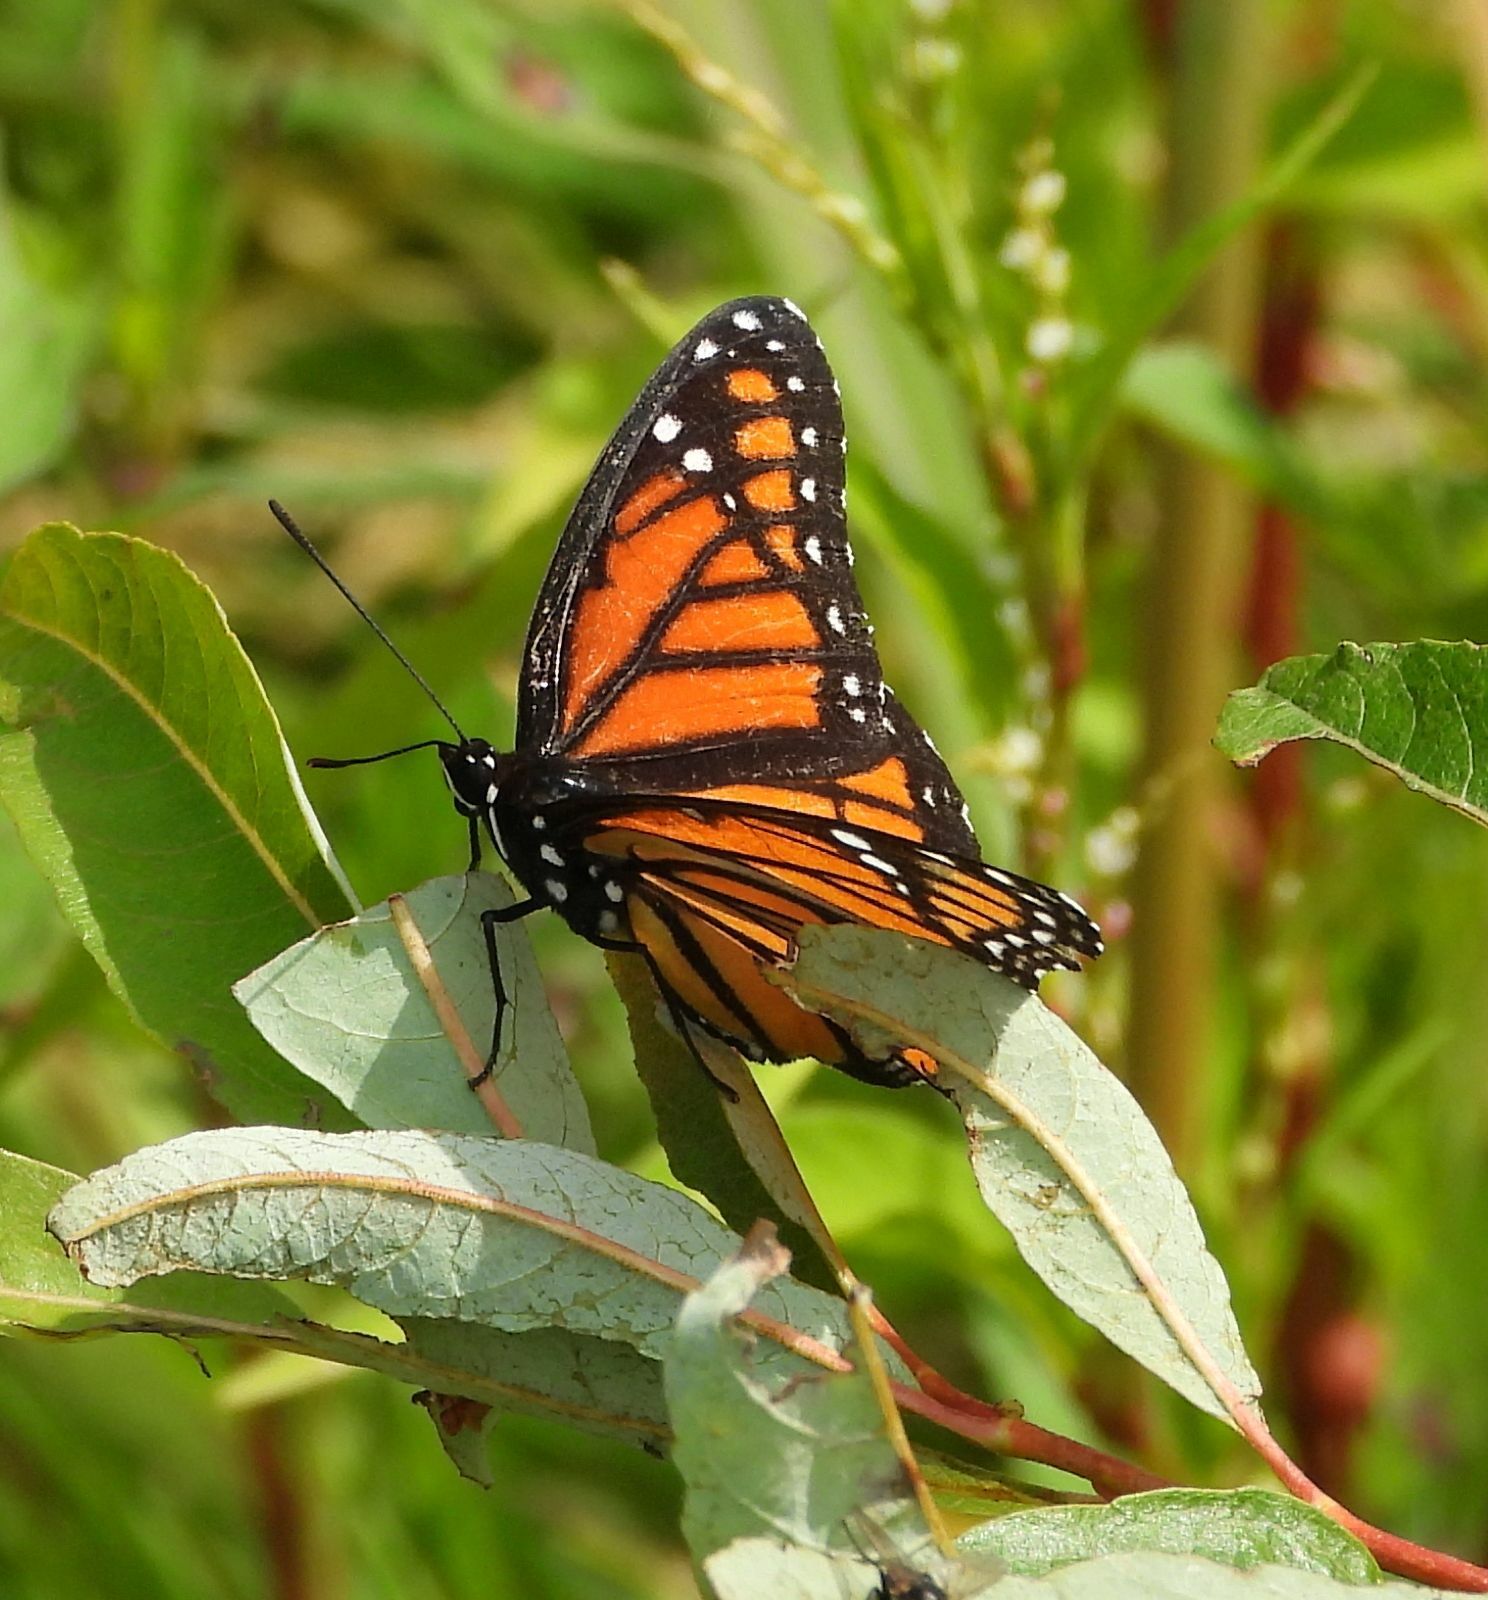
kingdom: Animalia
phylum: Arthropoda
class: Insecta
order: Lepidoptera
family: Nymphalidae
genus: Limenitis
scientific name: Limenitis archippus
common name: Viceroy
